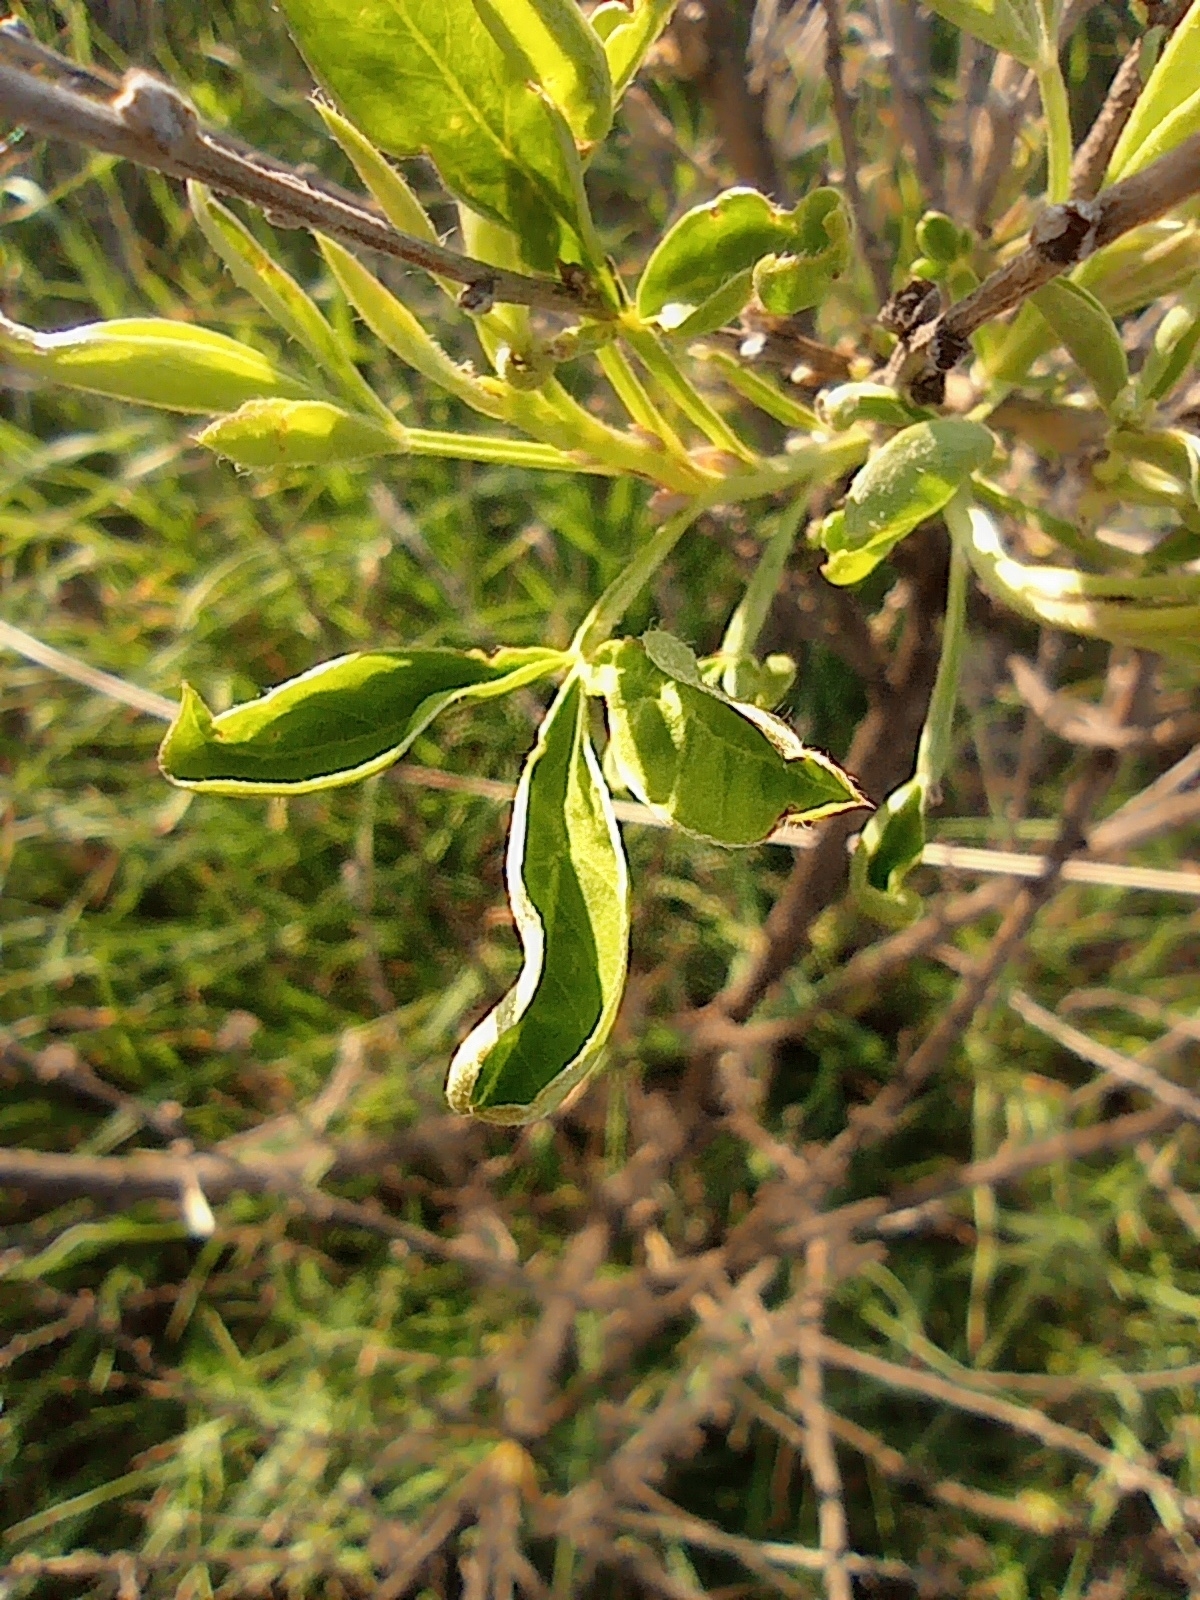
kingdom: Plantae
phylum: Tracheophyta
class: Magnoliopsida
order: Fabales
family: Fabaceae
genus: Chamaecytisus
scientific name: Chamaecytisus ruthenicus
